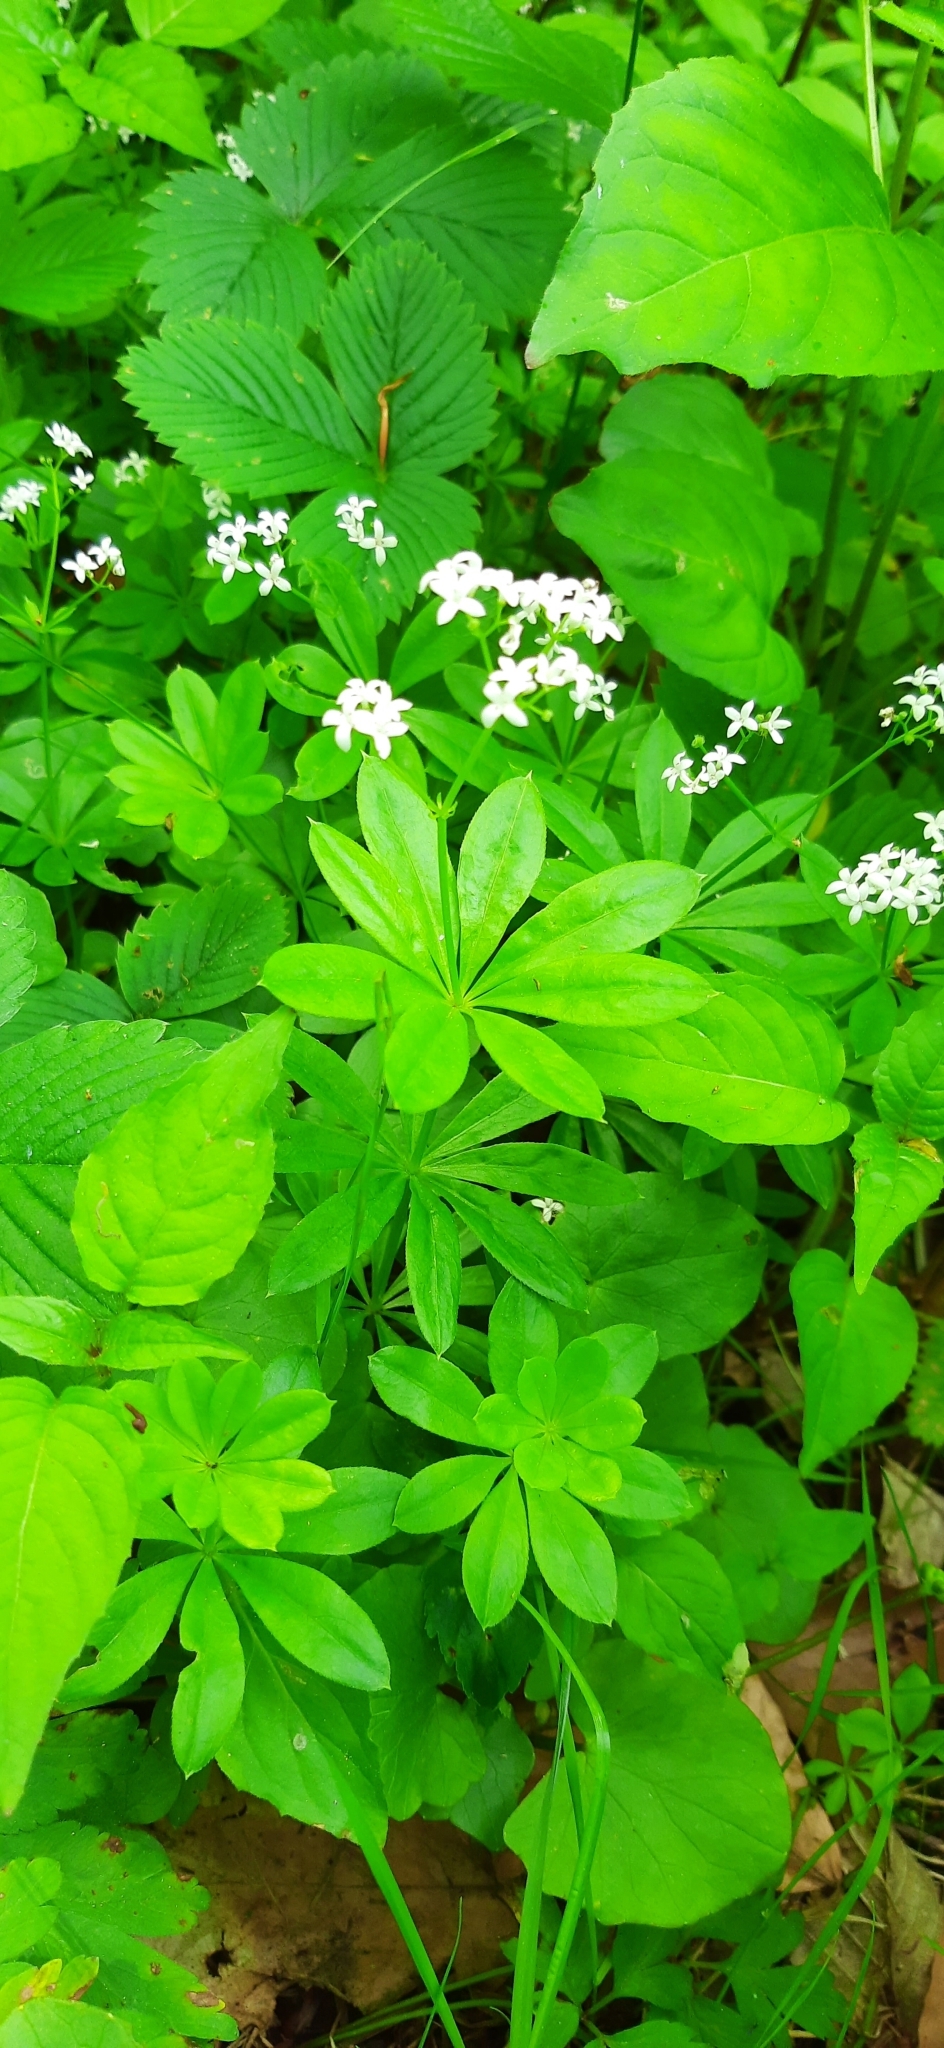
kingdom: Plantae
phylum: Tracheophyta
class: Magnoliopsida
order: Gentianales
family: Rubiaceae
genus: Galium
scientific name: Galium odoratum
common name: Sweet woodruff
